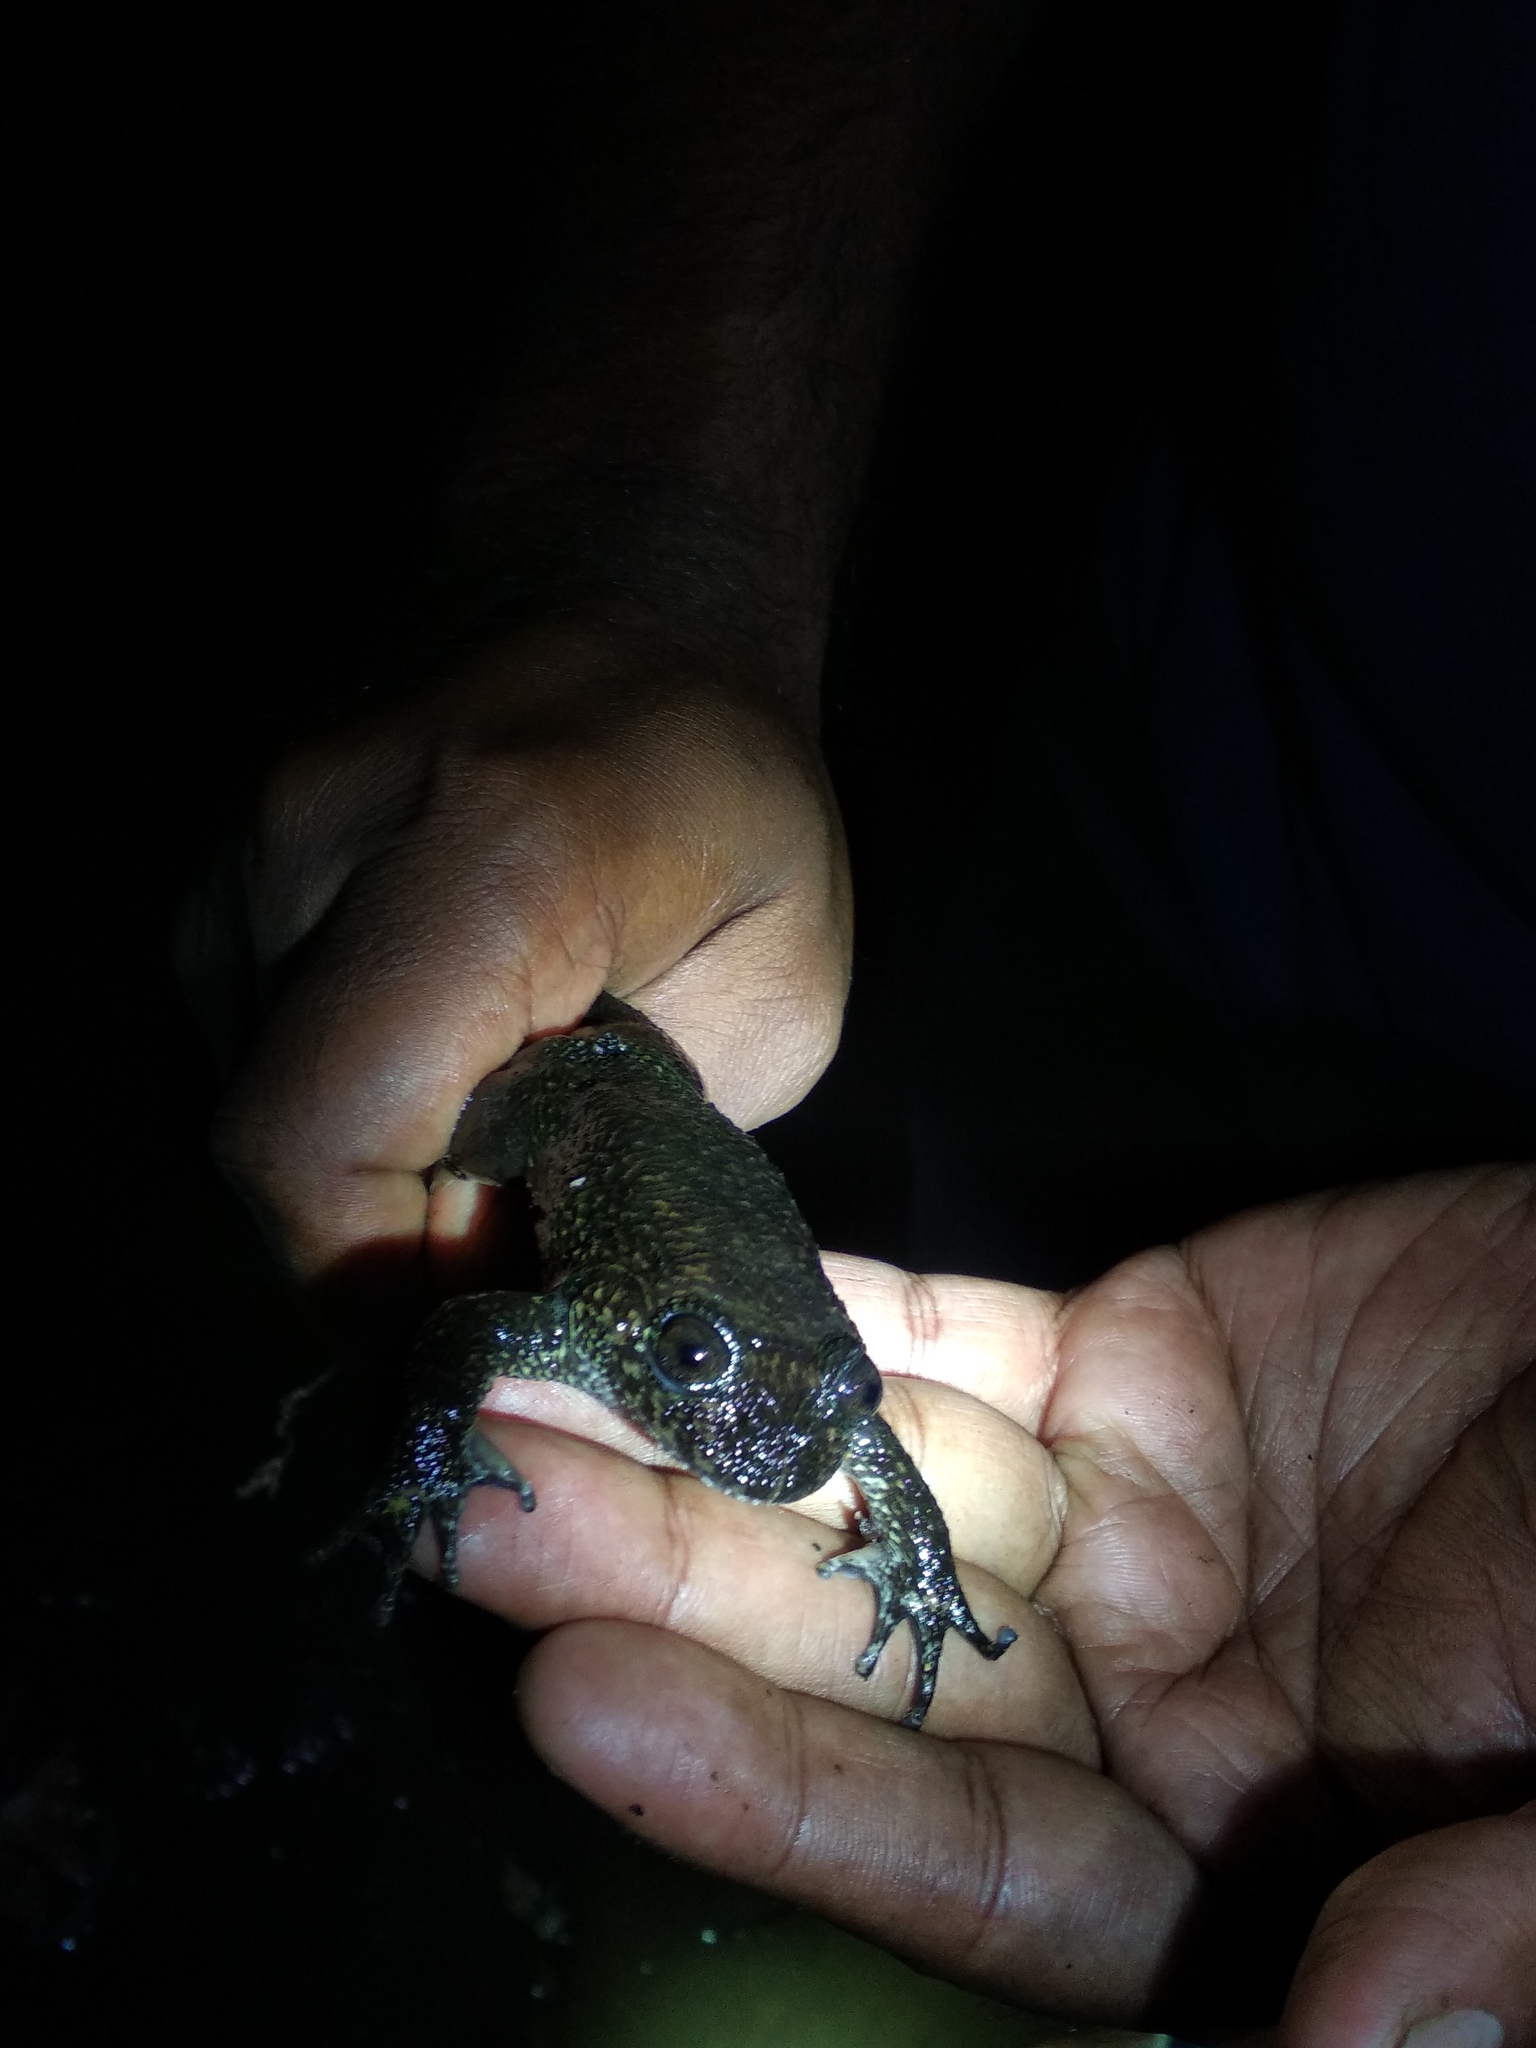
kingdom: Animalia
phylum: Chordata
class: Amphibia
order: Anura
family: Nyctibatrachidae
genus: Nyctibatrachus
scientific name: Nyctibatrachus grandis
